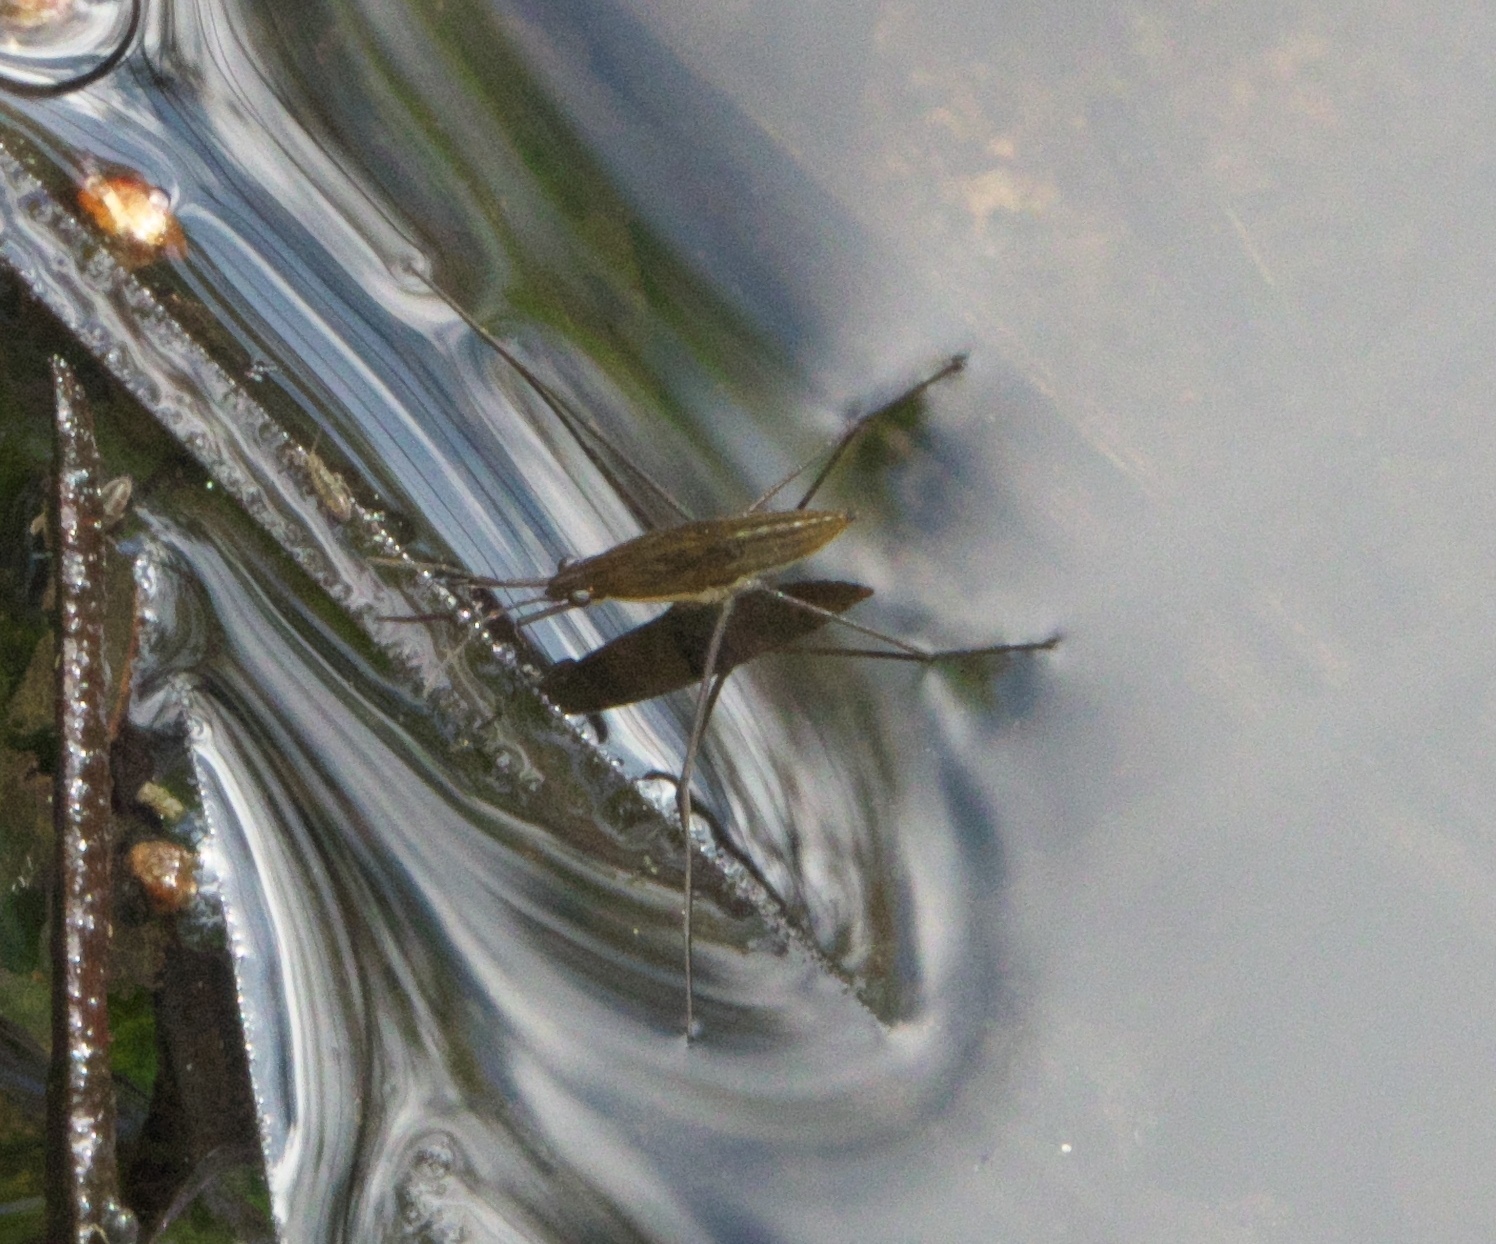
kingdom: Animalia
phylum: Arthropoda
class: Insecta
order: Hemiptera
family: Gerridae
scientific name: Gerridae
